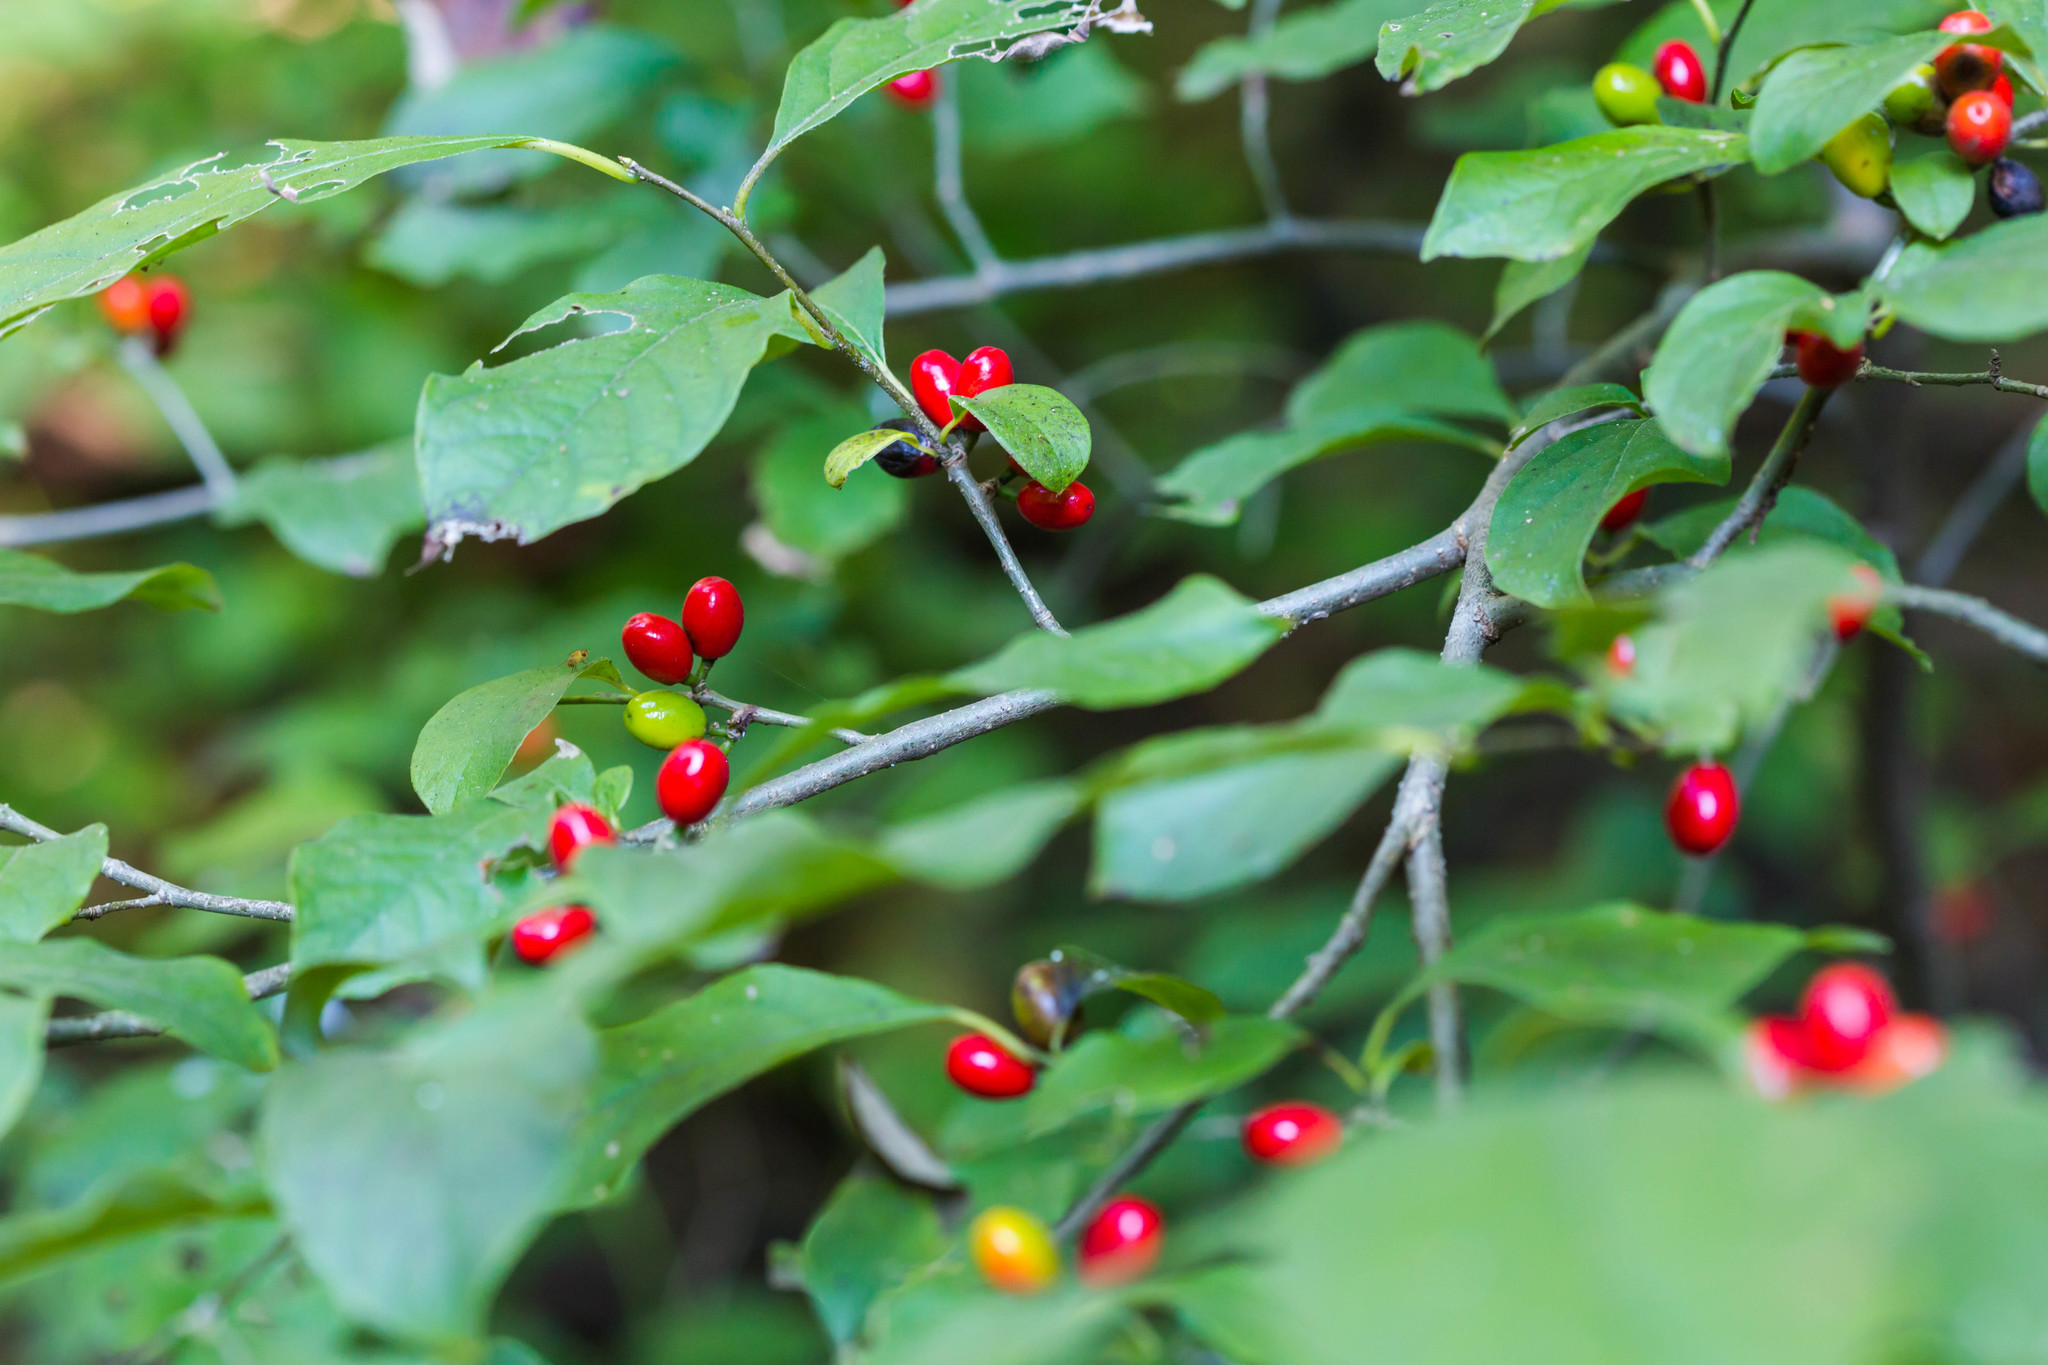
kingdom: Plantae
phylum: Tracheophyta
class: Magnoliopsida
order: Laurales
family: Lauraceae
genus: Lindera
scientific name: Lindera benzoin
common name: Spicebush
